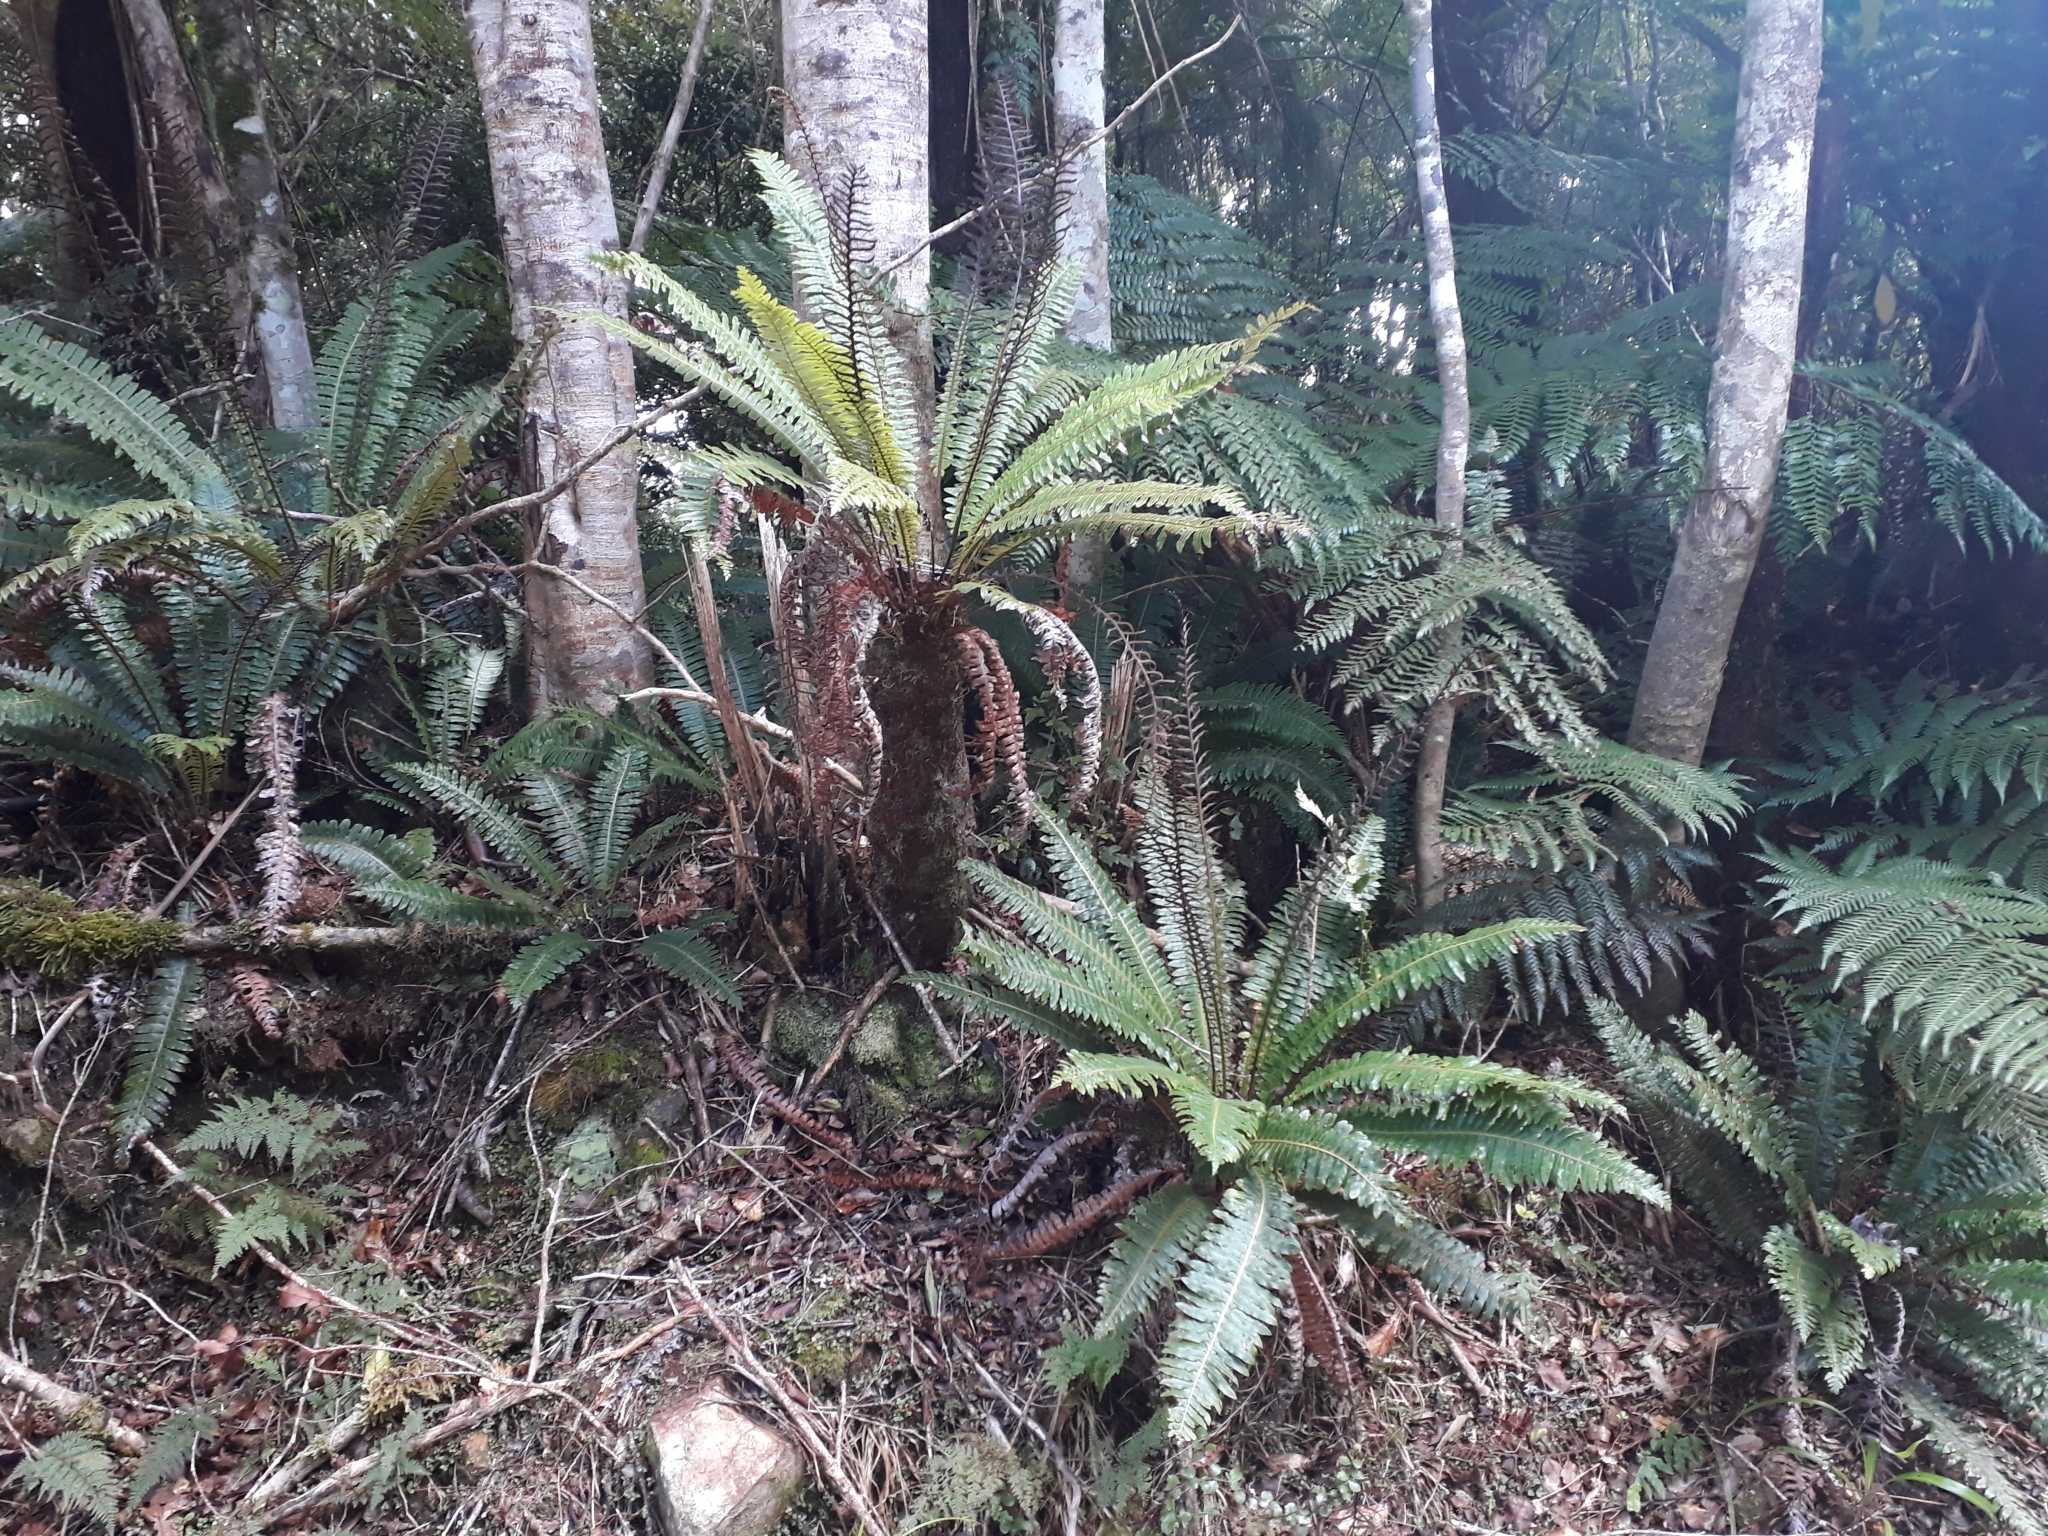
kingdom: Plantae
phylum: Tracheophyta
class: Polypodiopsida
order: Polypodiales
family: Blechnaceae
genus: Lomaria
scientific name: Lomaria discolor
